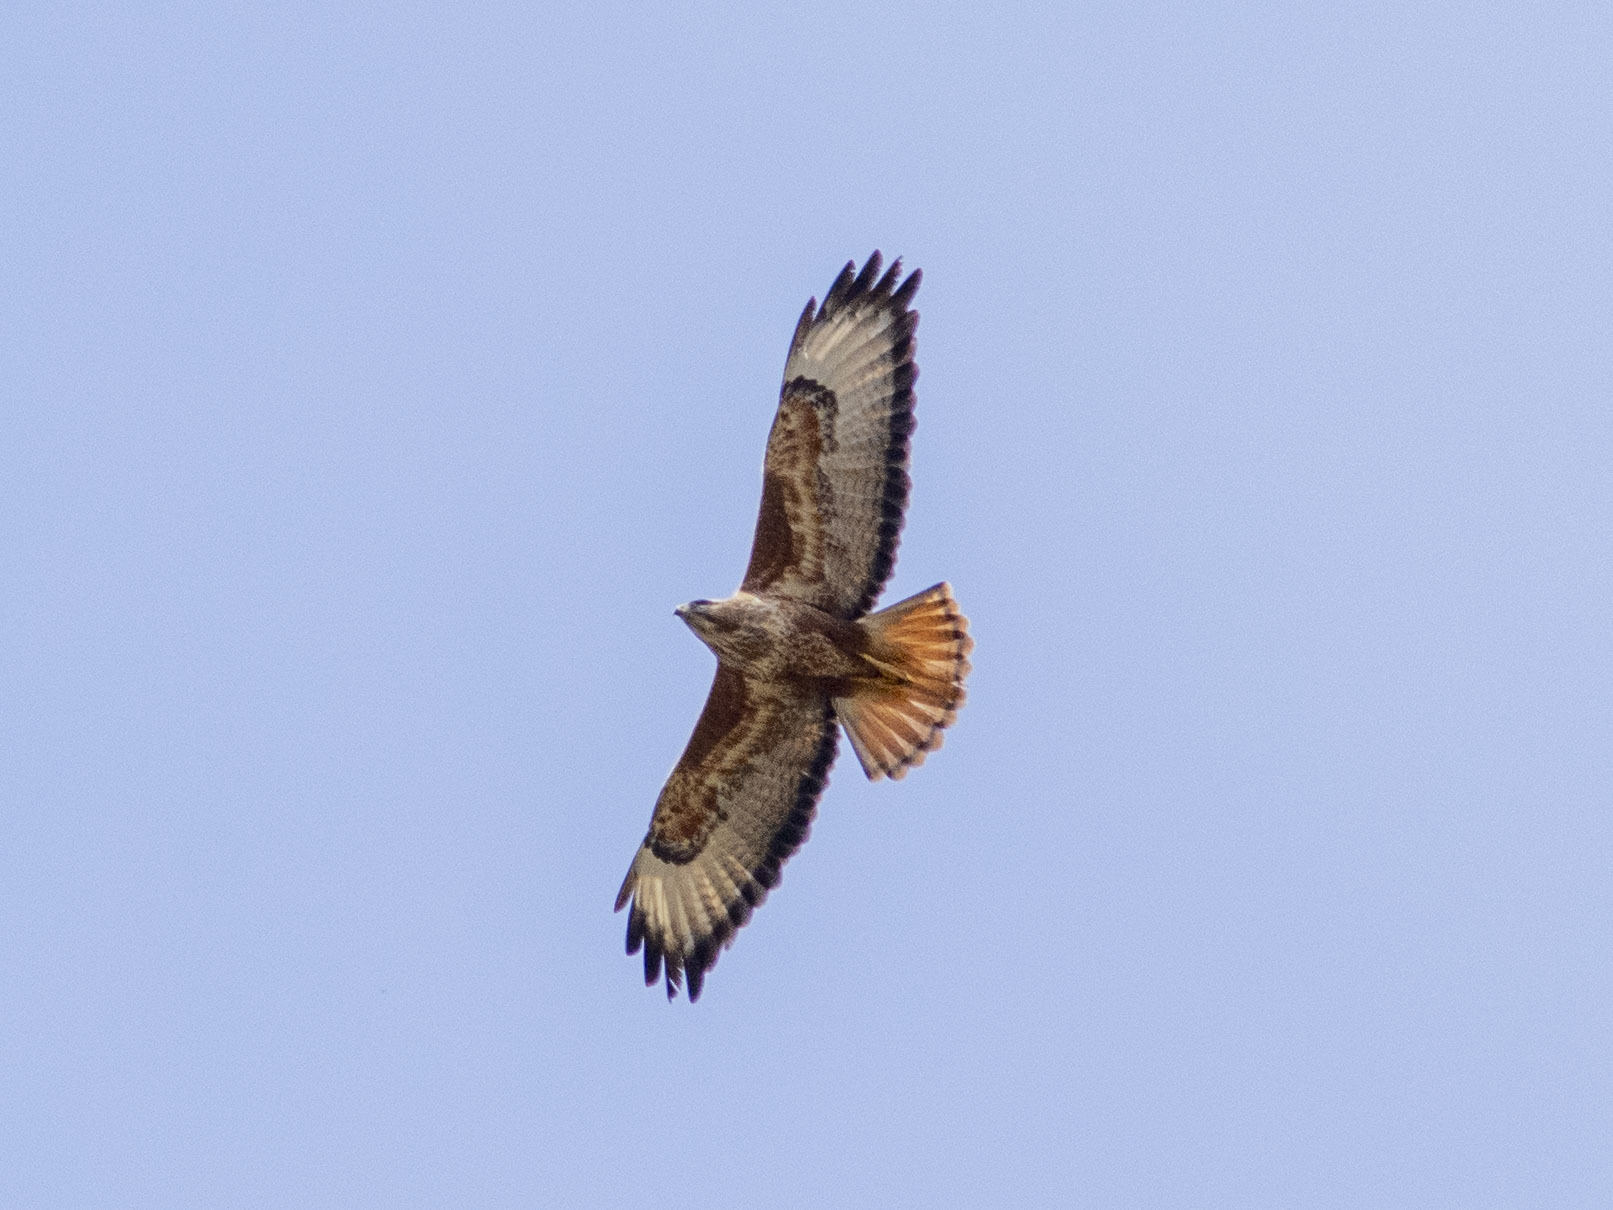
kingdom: Animalia
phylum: Chordata
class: Aves
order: Accipitriformes
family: Accipitridae
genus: Buteo
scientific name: Buteo buteo
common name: Common buzzard
